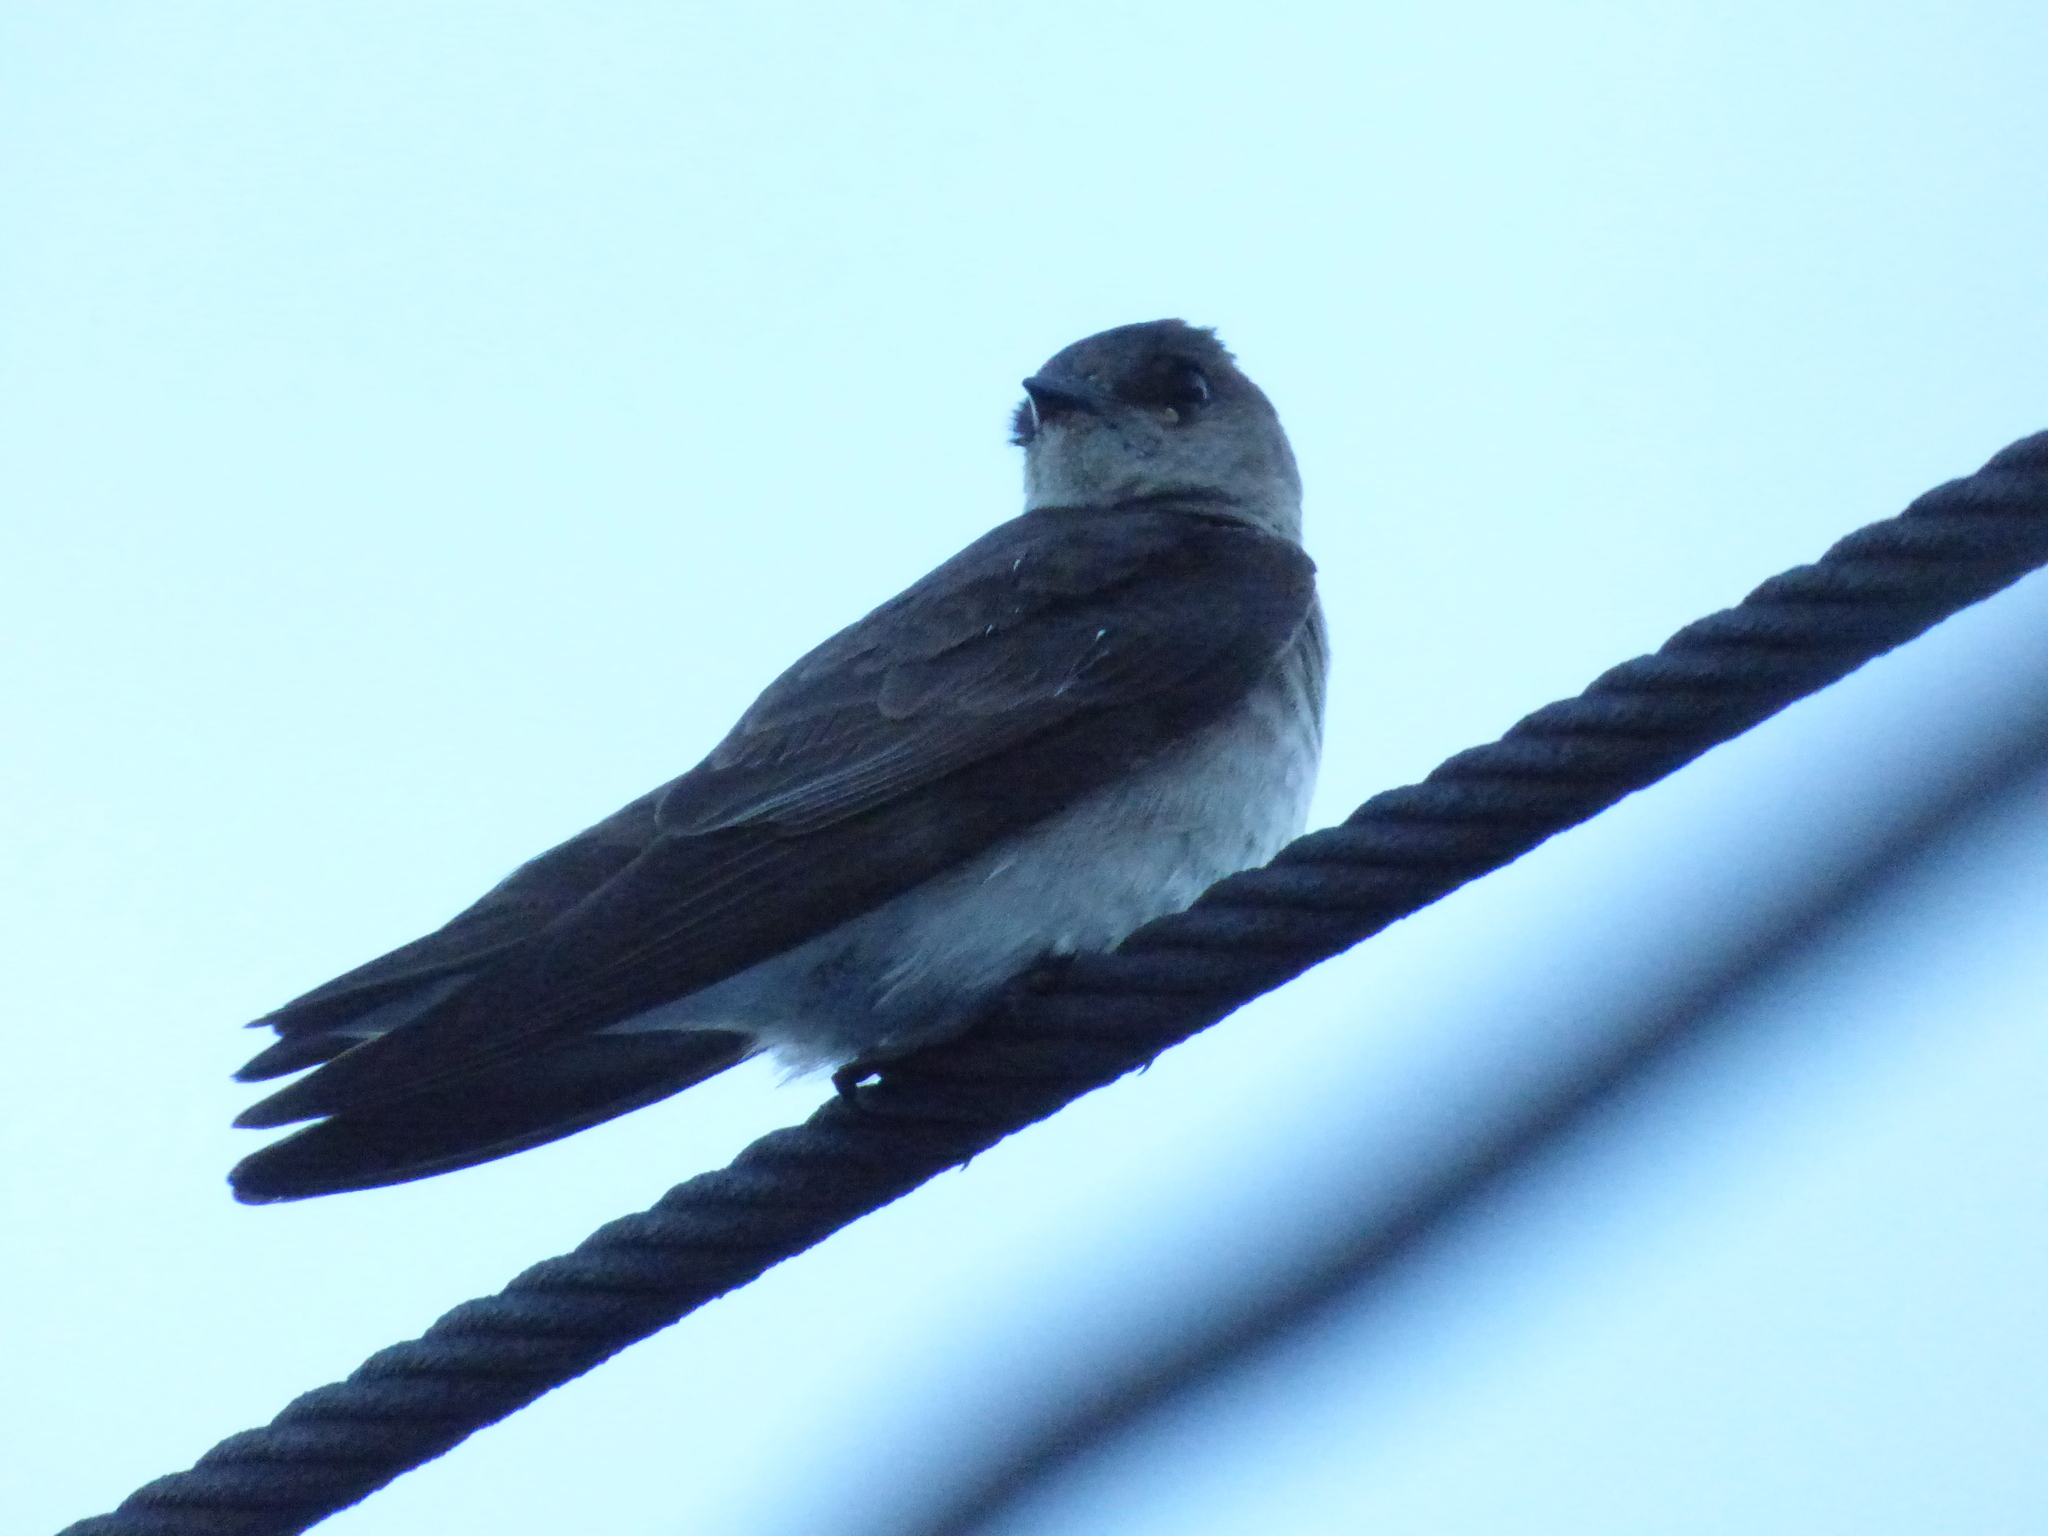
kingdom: Animalia
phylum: Chordata
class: Aves
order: Passeriformes
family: Hirundinidae
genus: Stelgidopteryx
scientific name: Stelgidopteryx serripennis
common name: Northern rough-winged swallow
